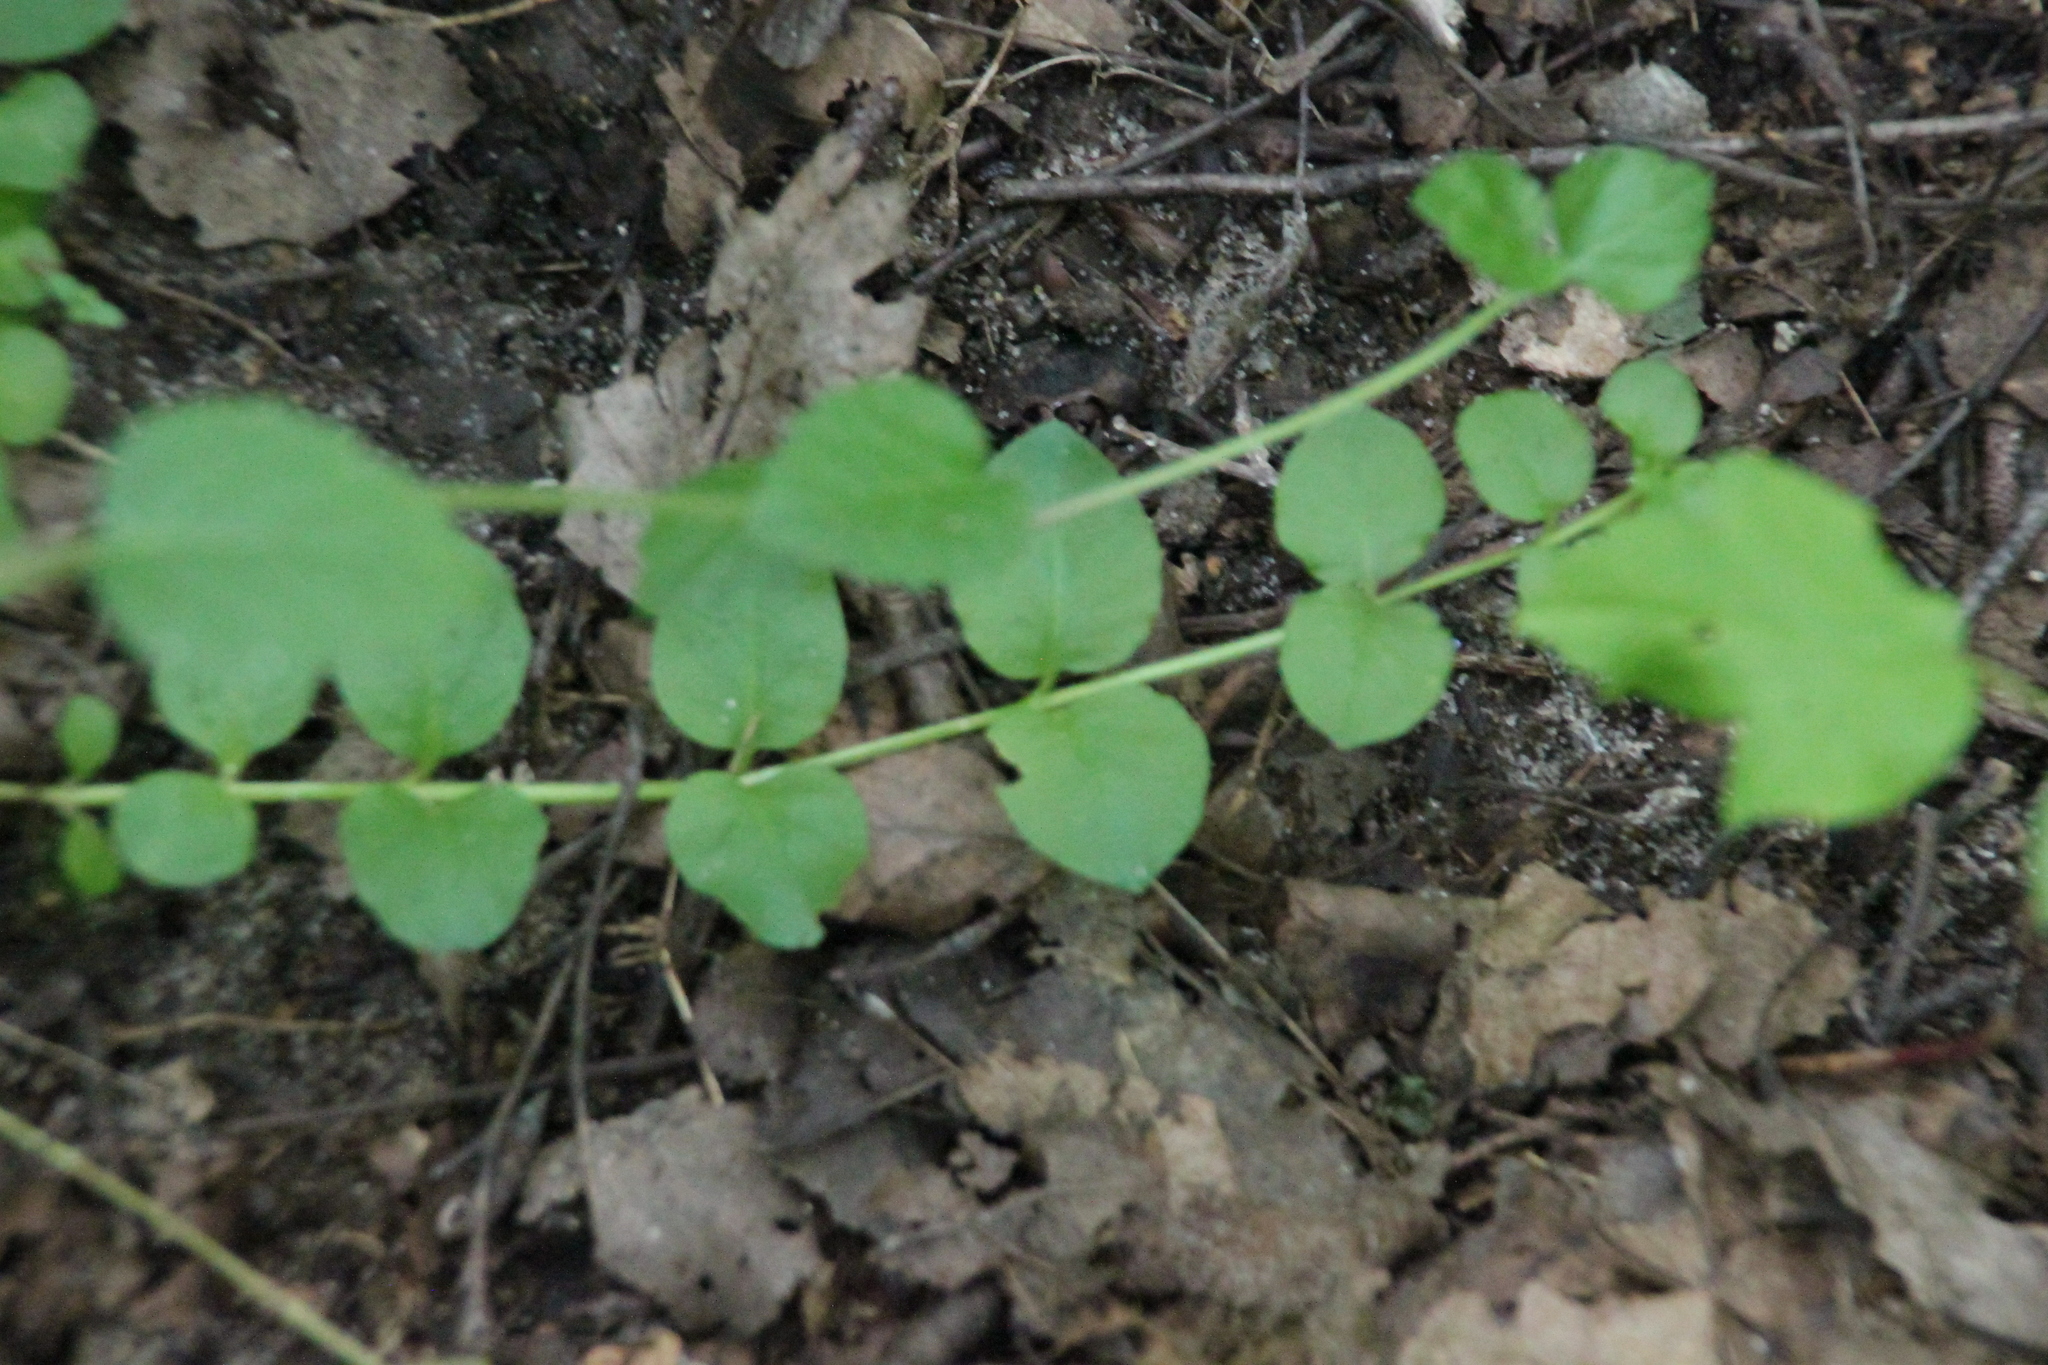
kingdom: Plantae
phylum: Tracheophyta
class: Magnoliopsida
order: Ericales
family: Primulaceae
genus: Lysimachia
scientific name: Lysimachia nummularia
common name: Moneywort
